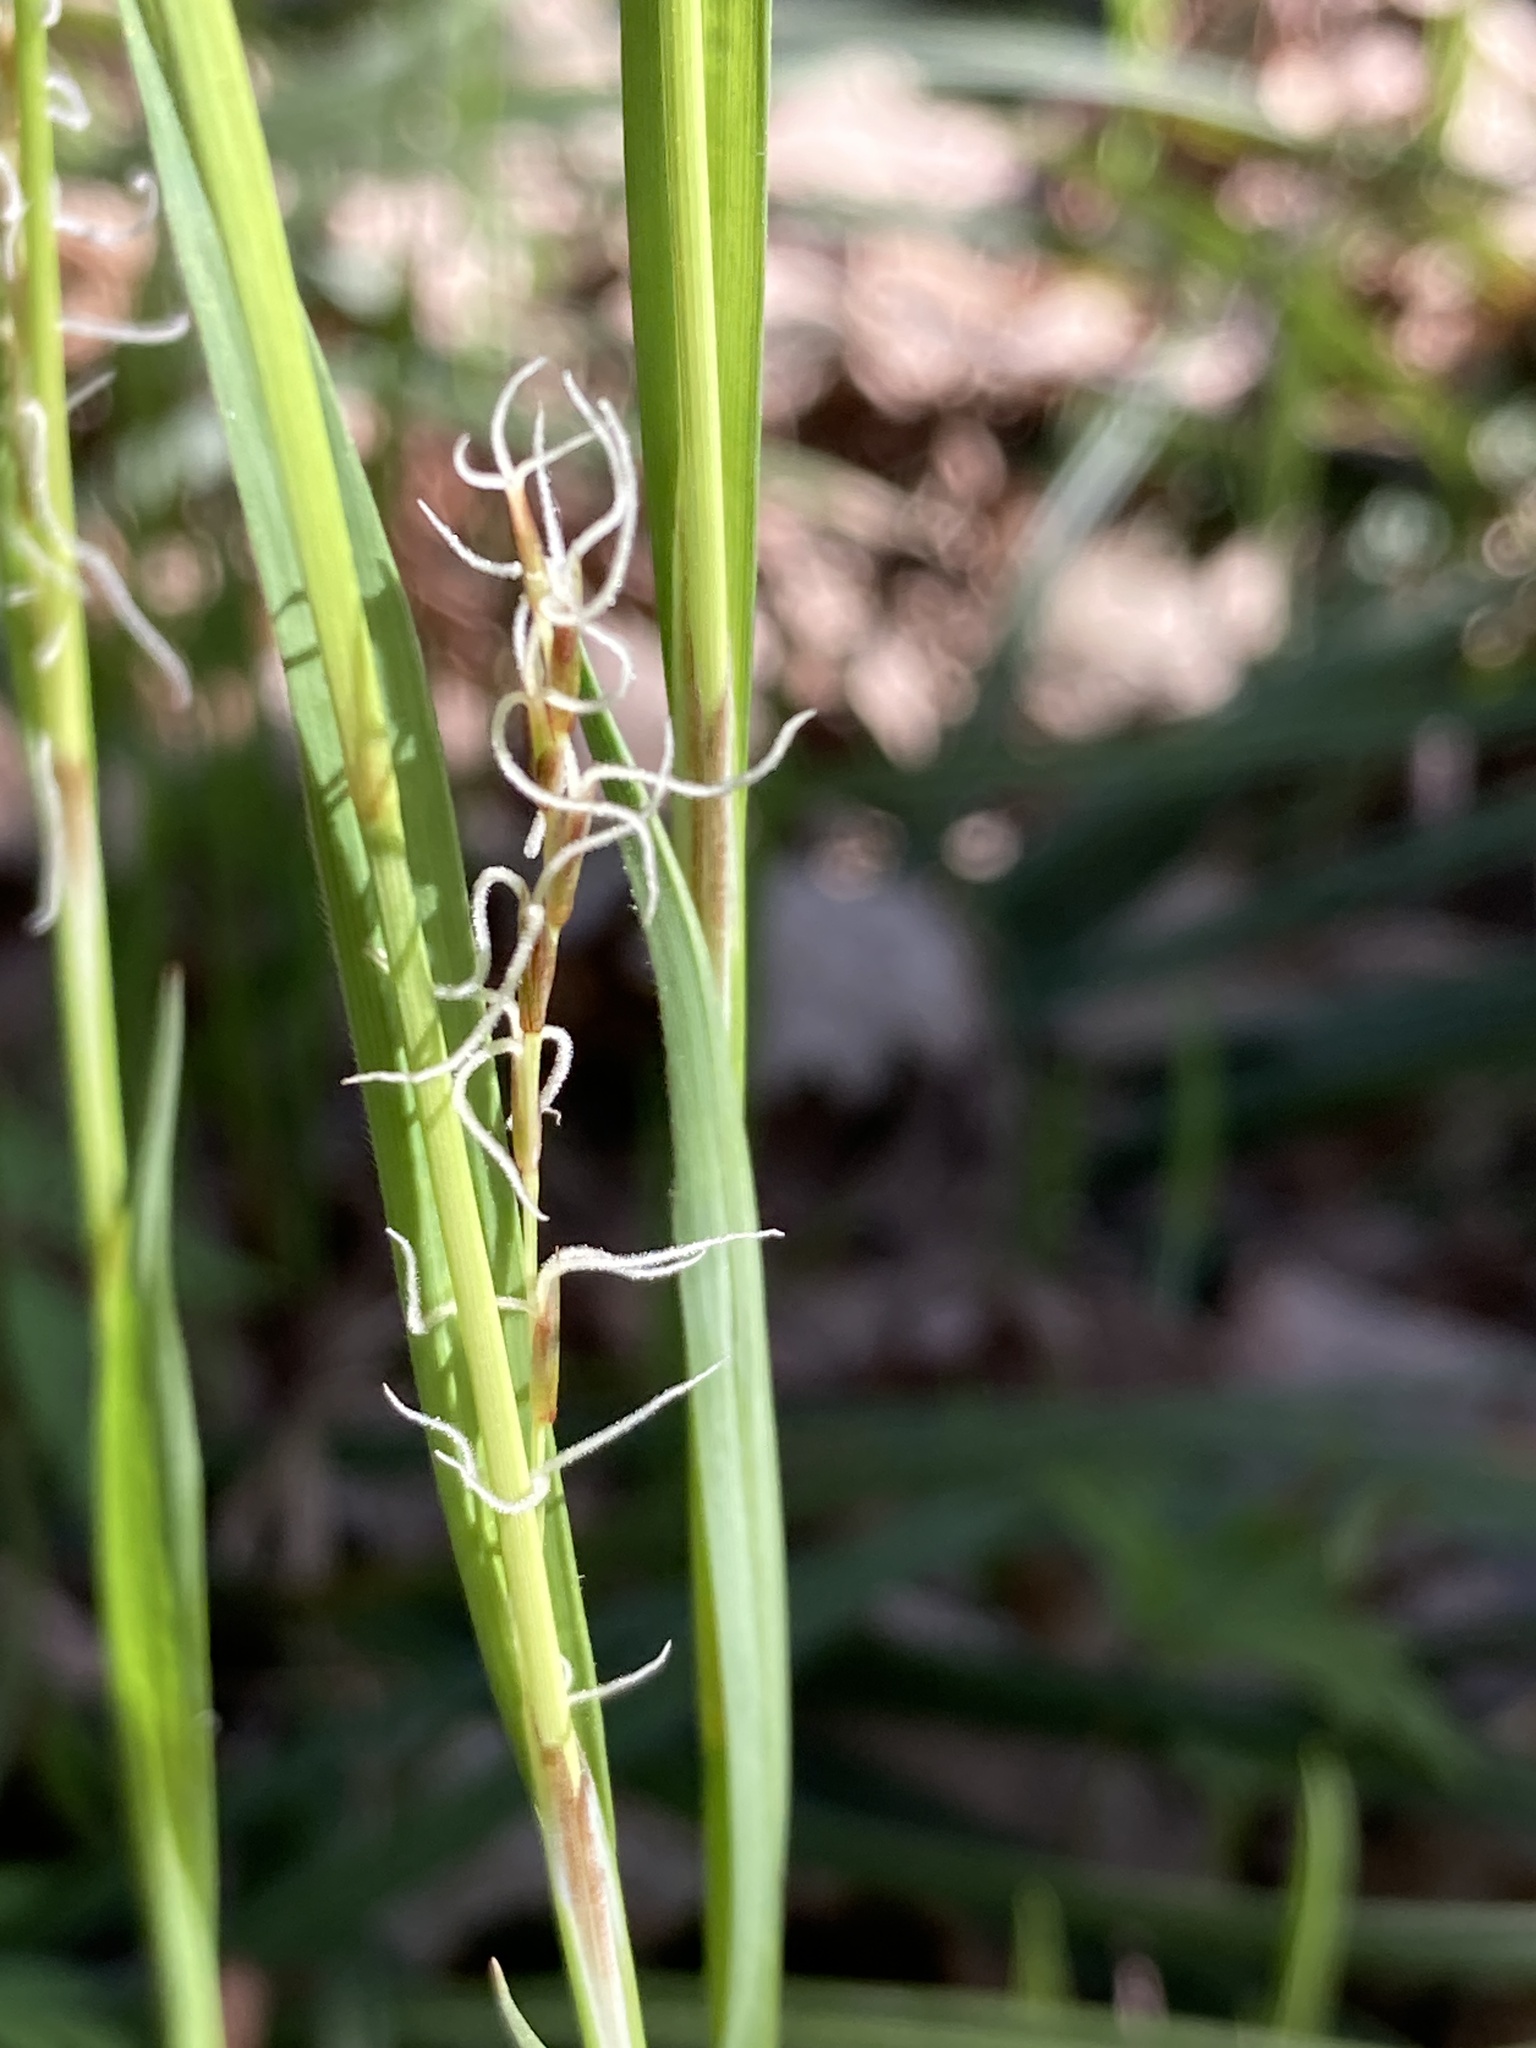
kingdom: Plantae
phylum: Tracheophyta
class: Liliopsida
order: Poales
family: Cyperaceae
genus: Carex
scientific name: Carex pilosa
